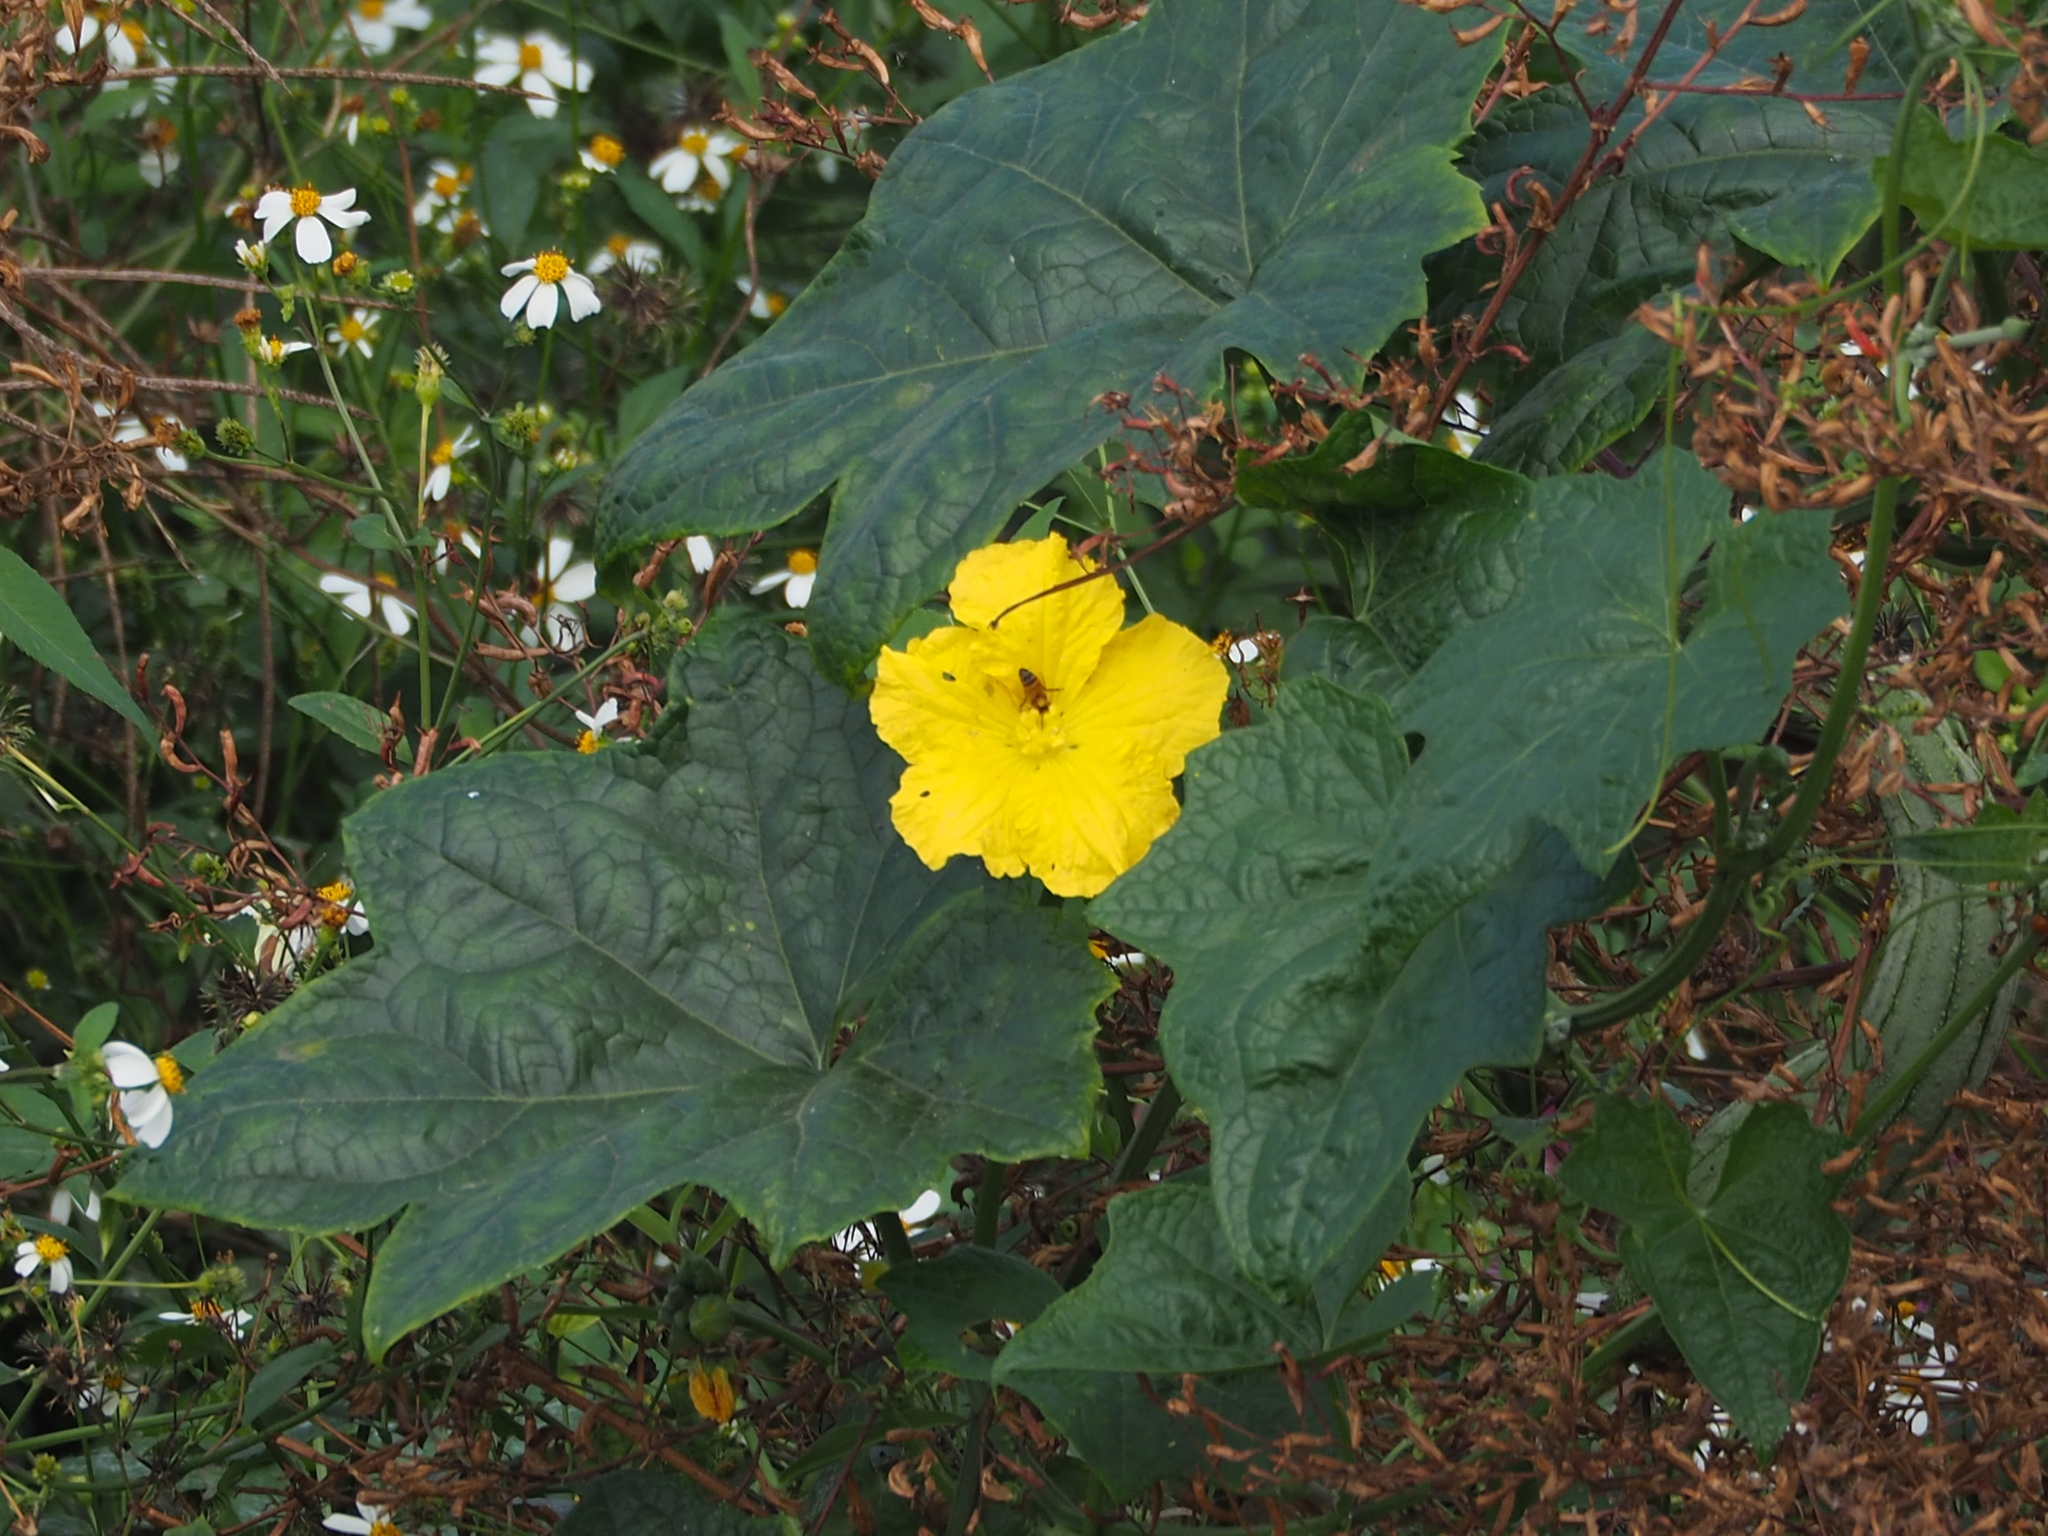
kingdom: Plantae
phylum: Tracheophyta
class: Magnoliopsida
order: Cucurbitales
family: Cucurbitaceae
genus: Luffa
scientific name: Luffa aegyptiaca
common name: Sponge gourd
